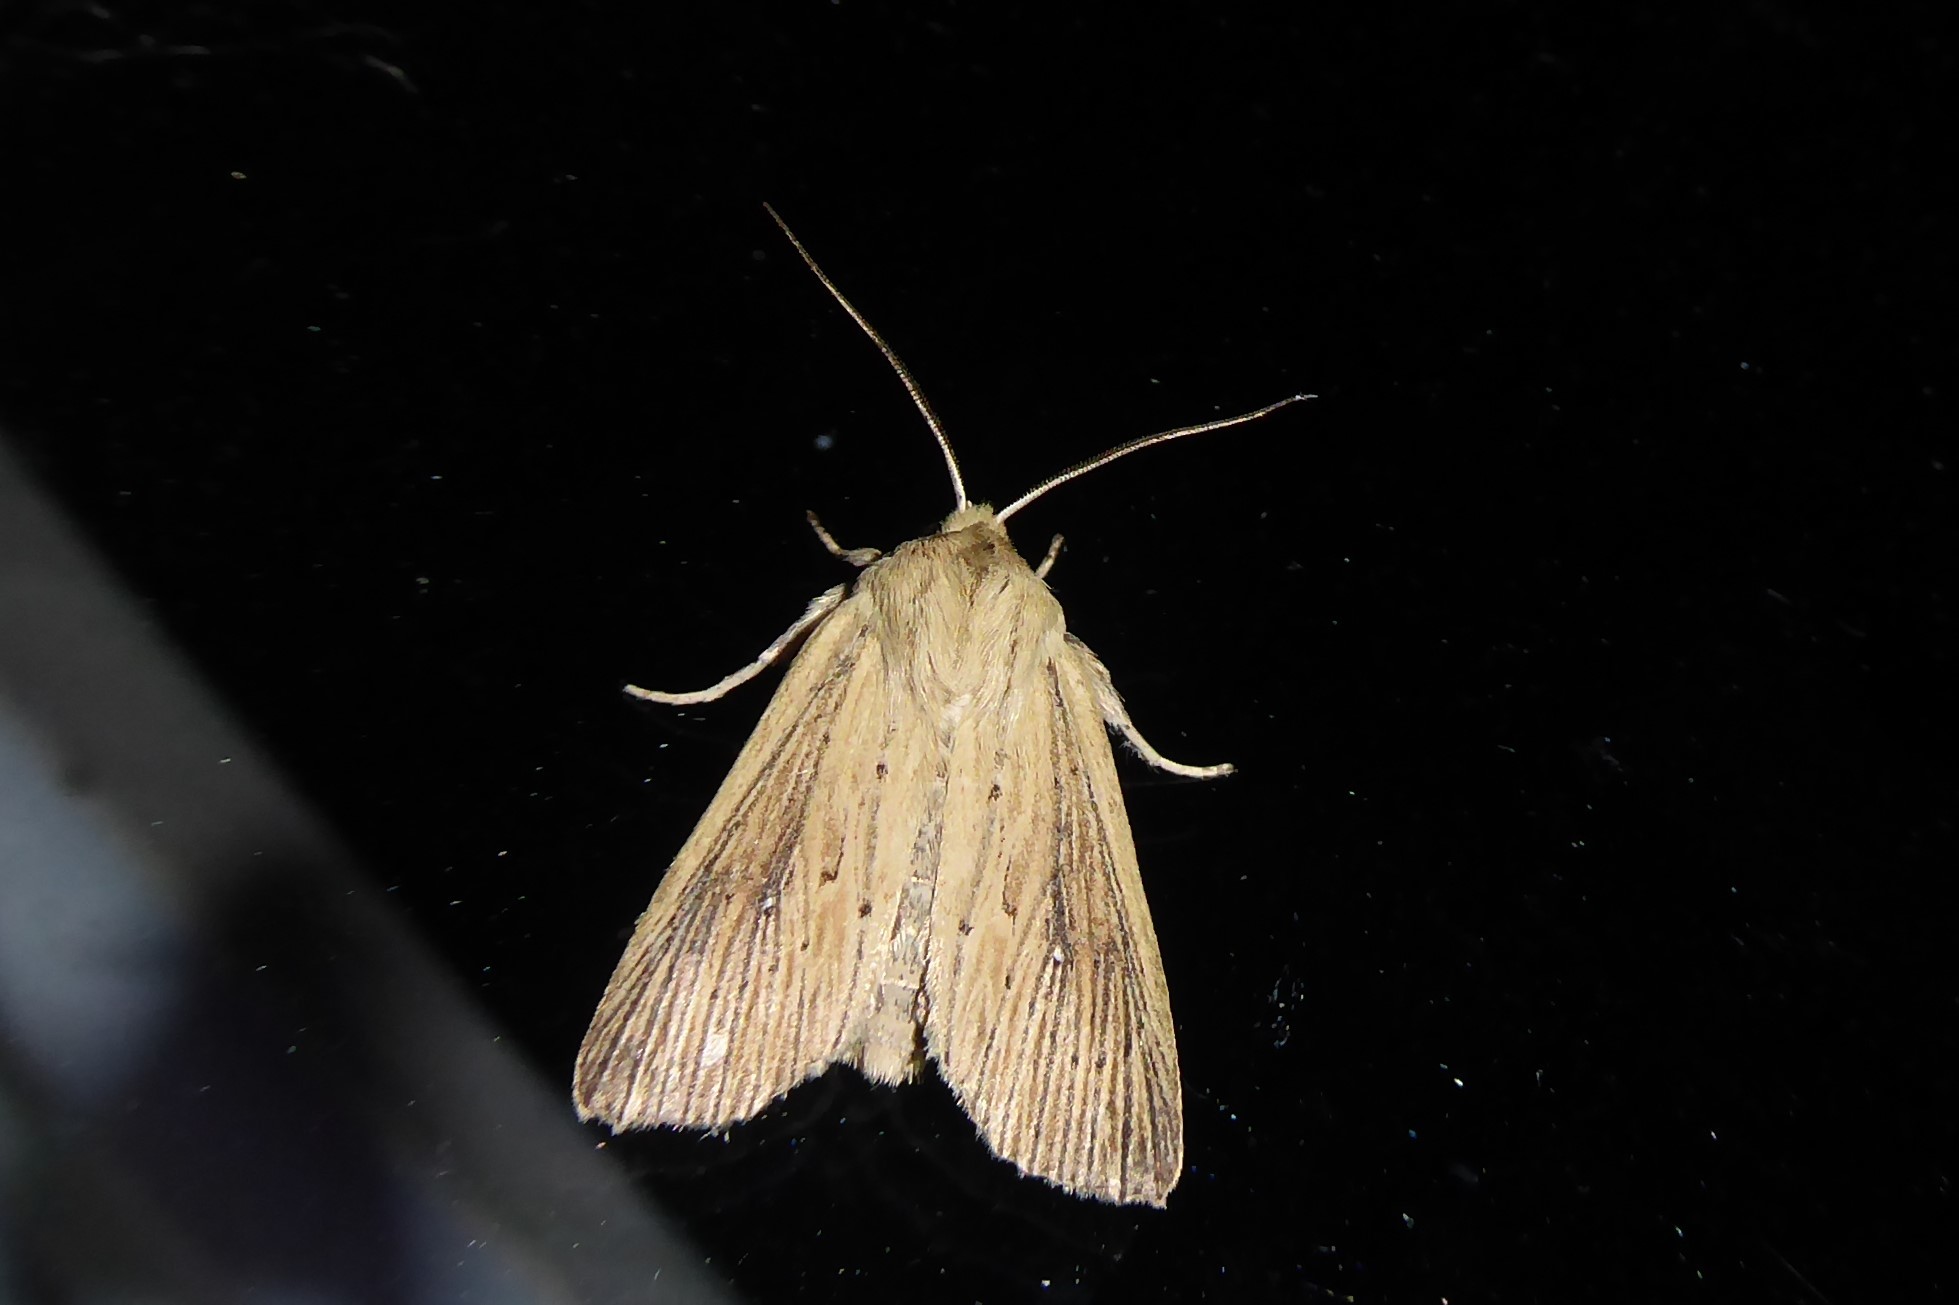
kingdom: Animalia
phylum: Arthropoda
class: Insecta
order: Lepidoptera
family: Noctuidae
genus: Ichneutica
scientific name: Ichneutica arotis
